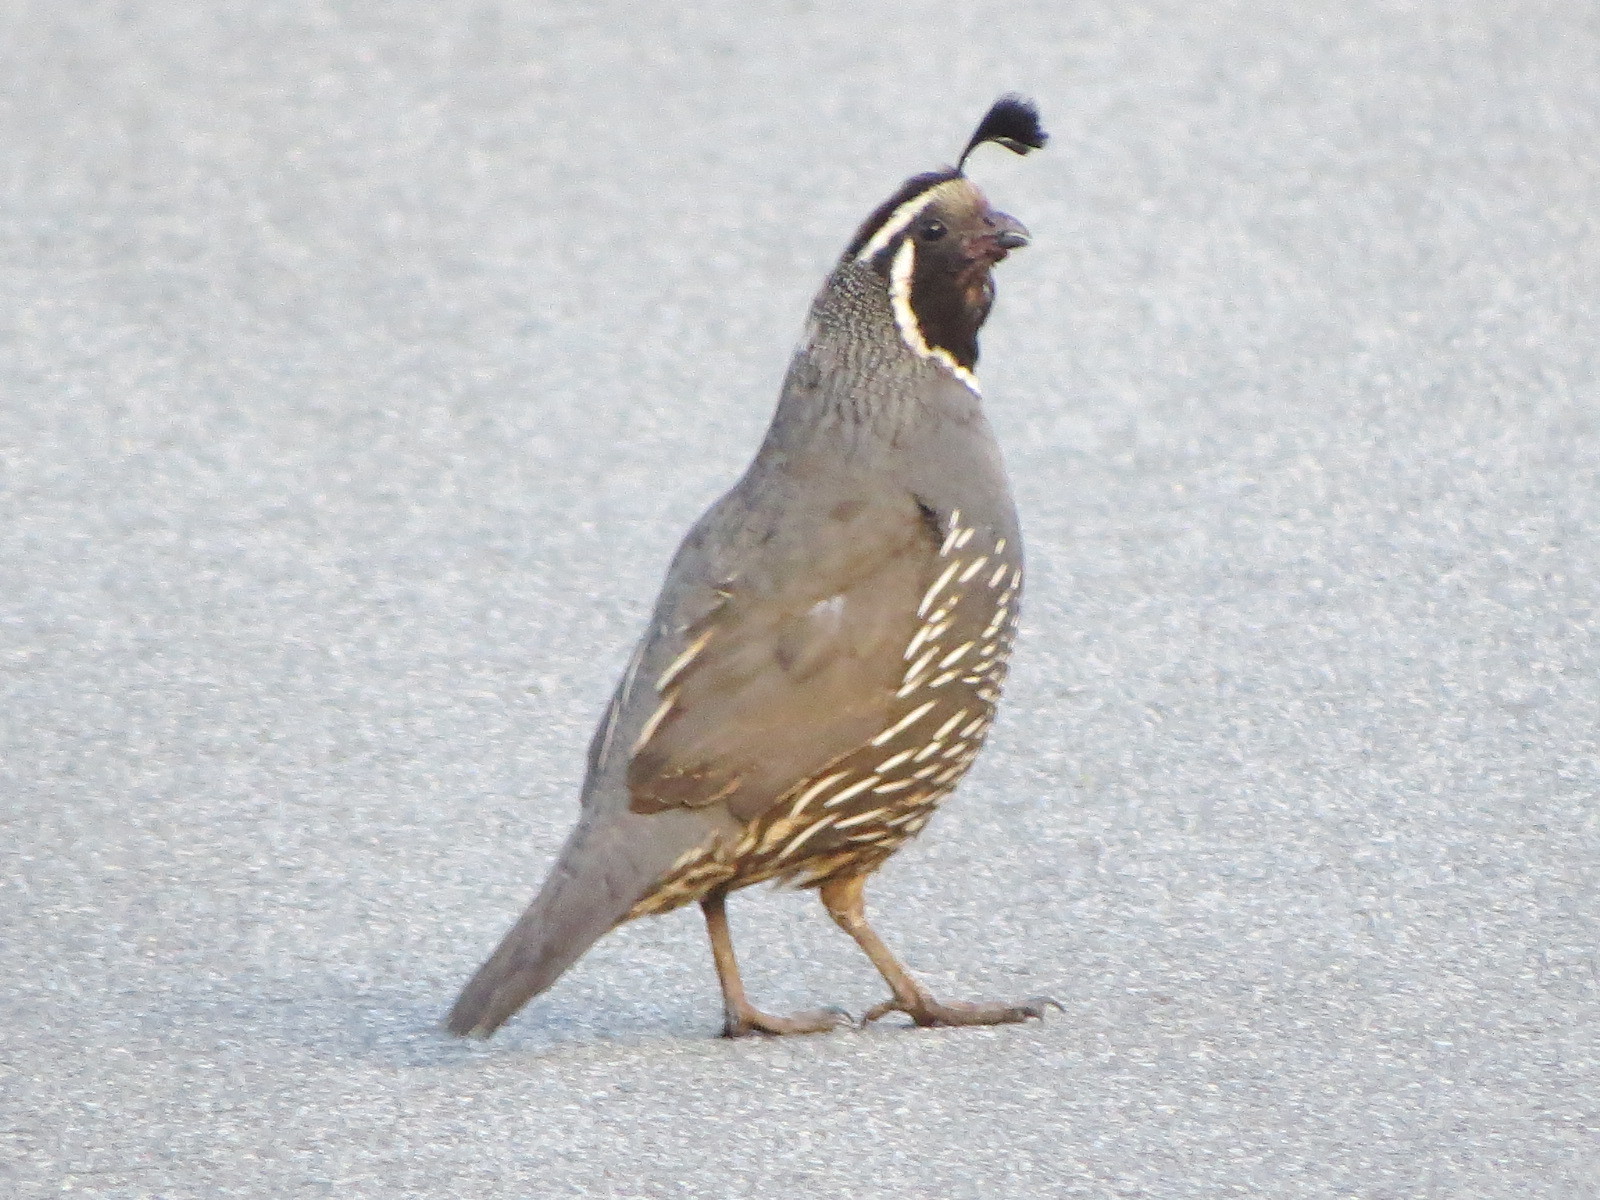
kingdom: Animalia
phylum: Chordata
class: Aves
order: Galliformes
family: Odontophoridae
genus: Callipepla
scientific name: Callipepla californica
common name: California quail
